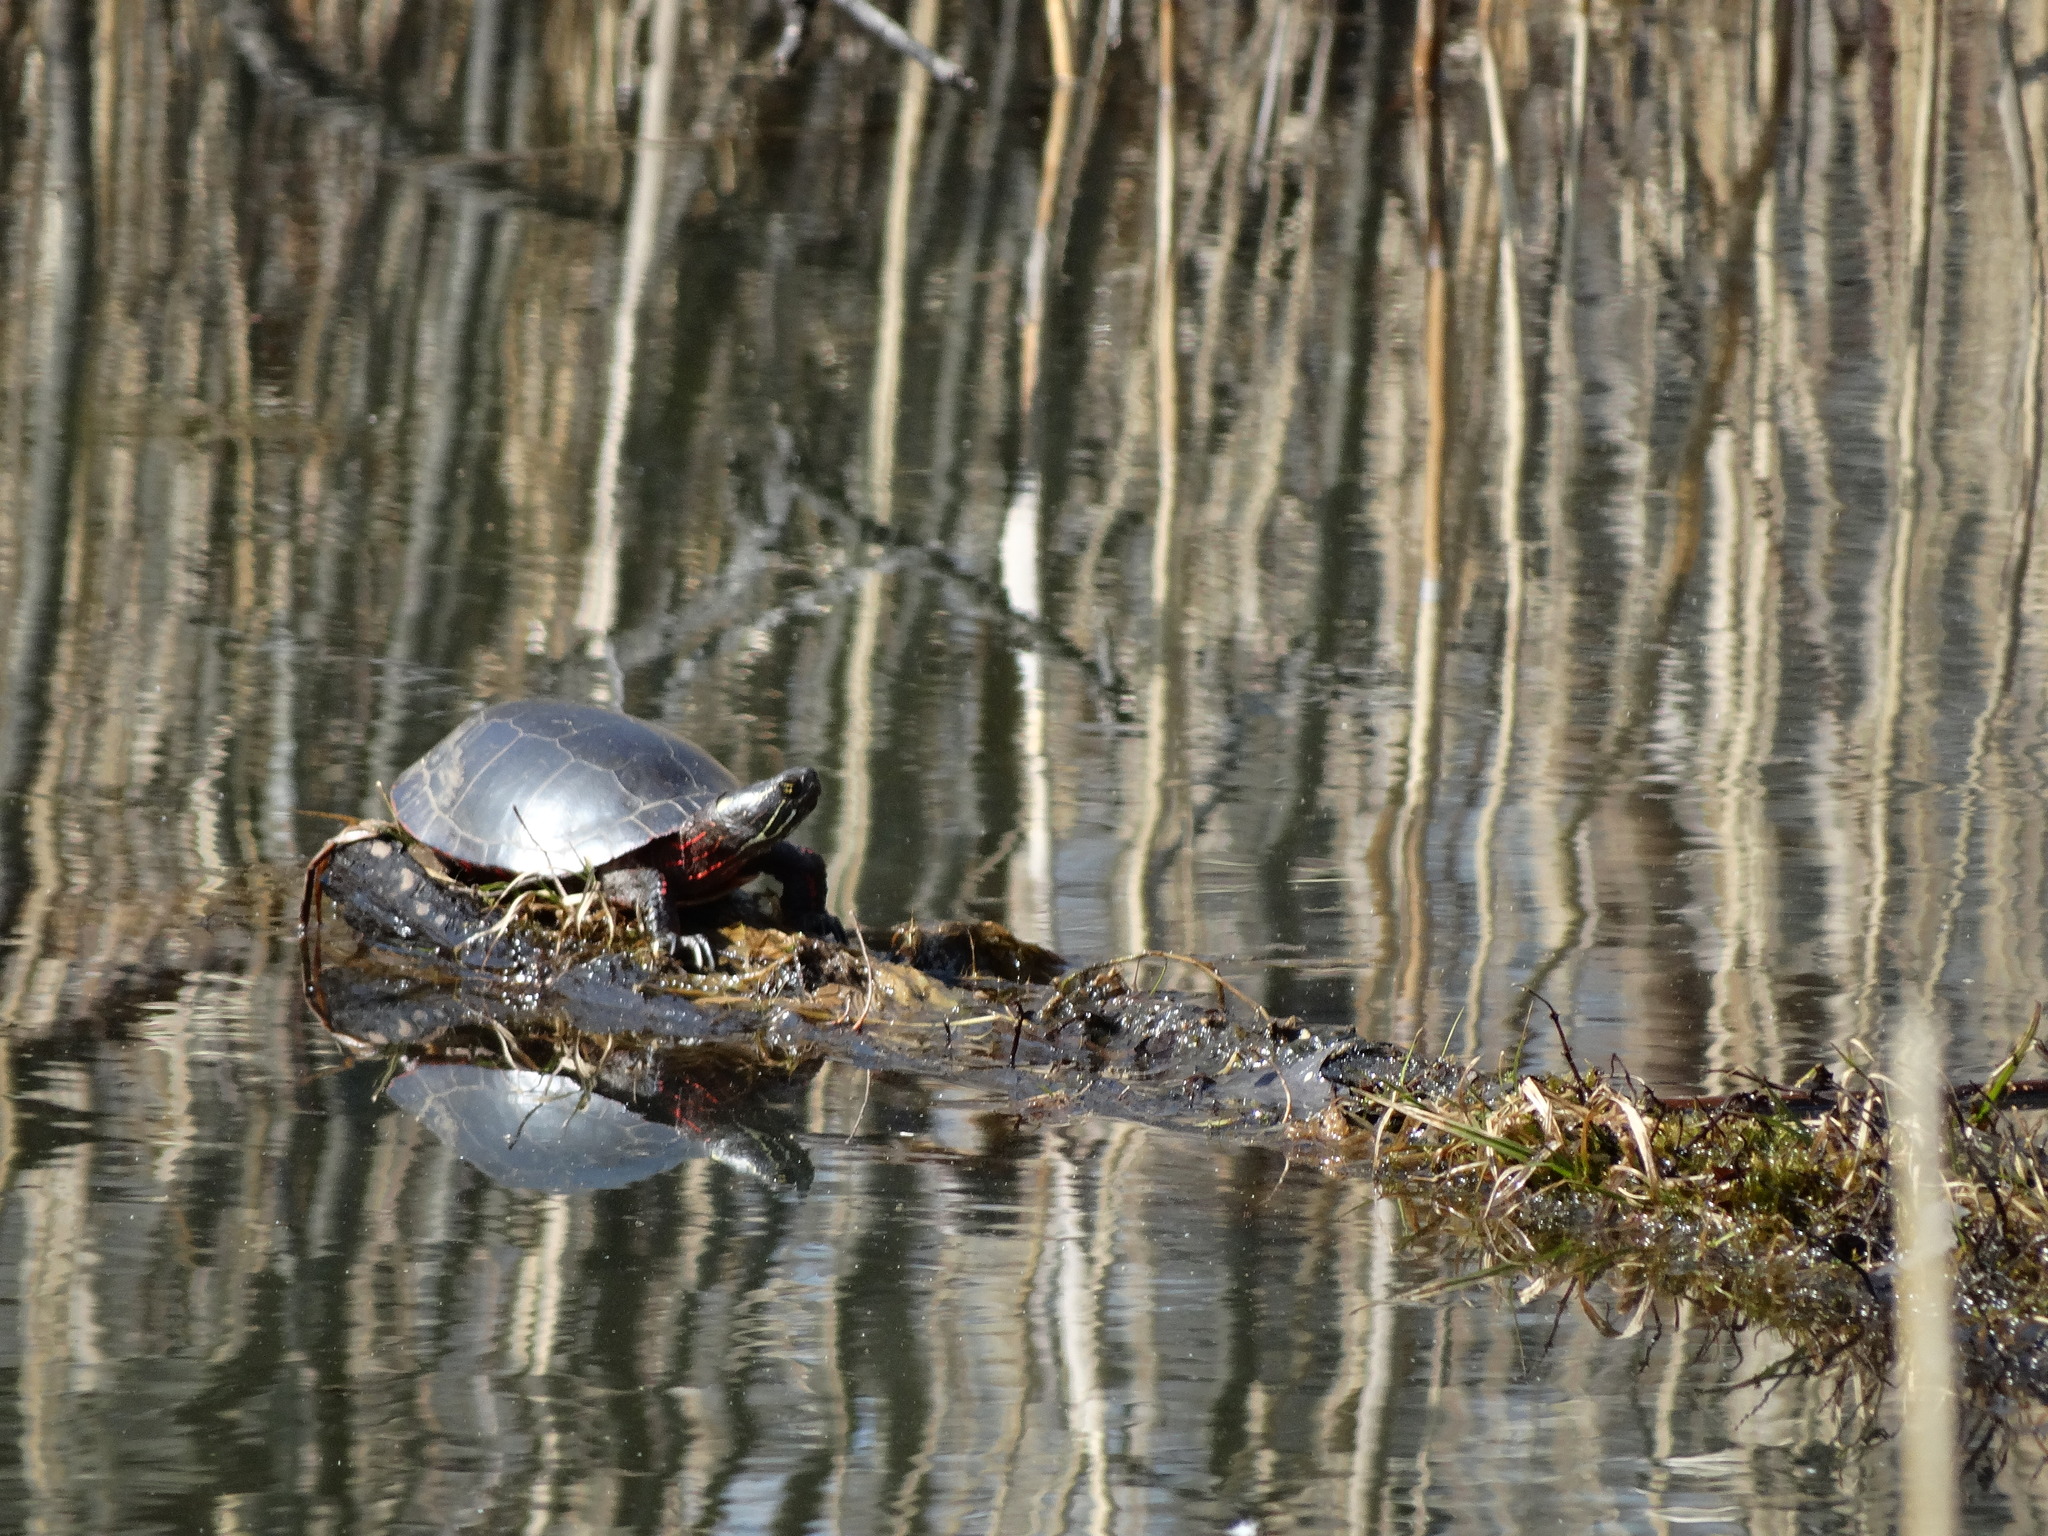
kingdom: Animalia
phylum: Chordata
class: Testudines
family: Emydidae
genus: Chrysemys
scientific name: Chrysemys picta
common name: Painted turtle
